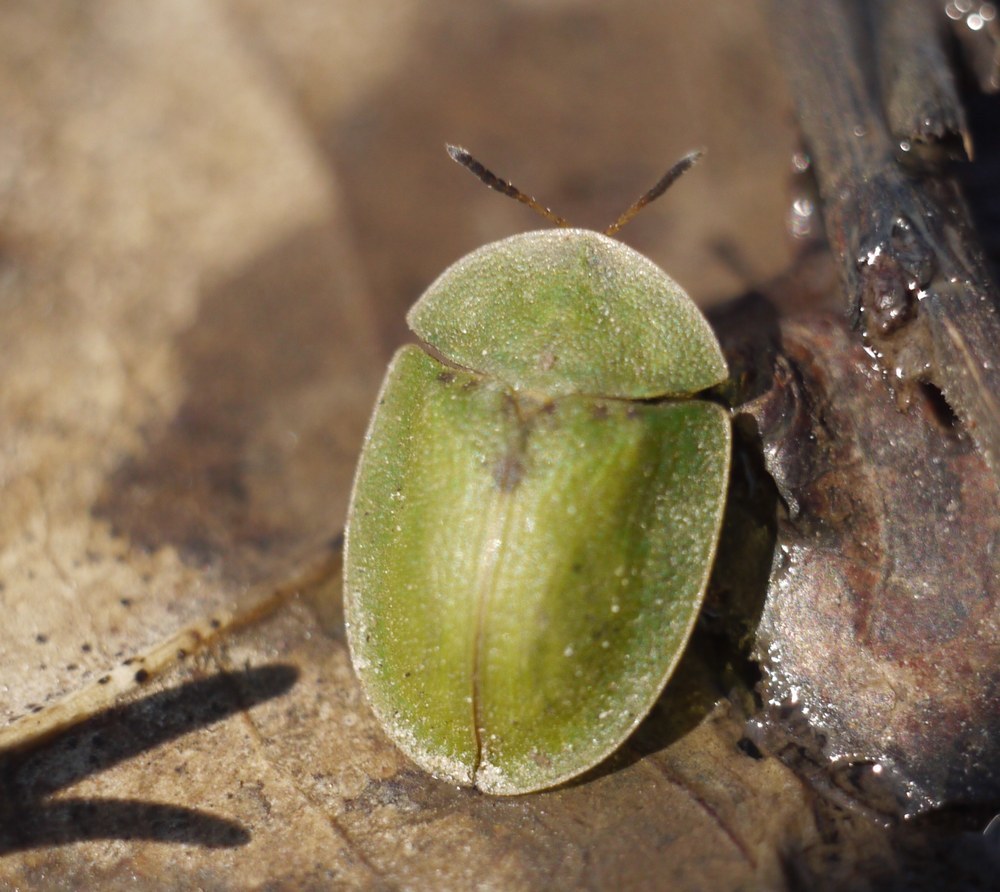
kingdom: Animalia
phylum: Arthropoda
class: Insecta
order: Coleoptera
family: Chrysomelidae
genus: Cassida
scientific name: Cassida rubiginosa
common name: Thistle tortoise beetle
